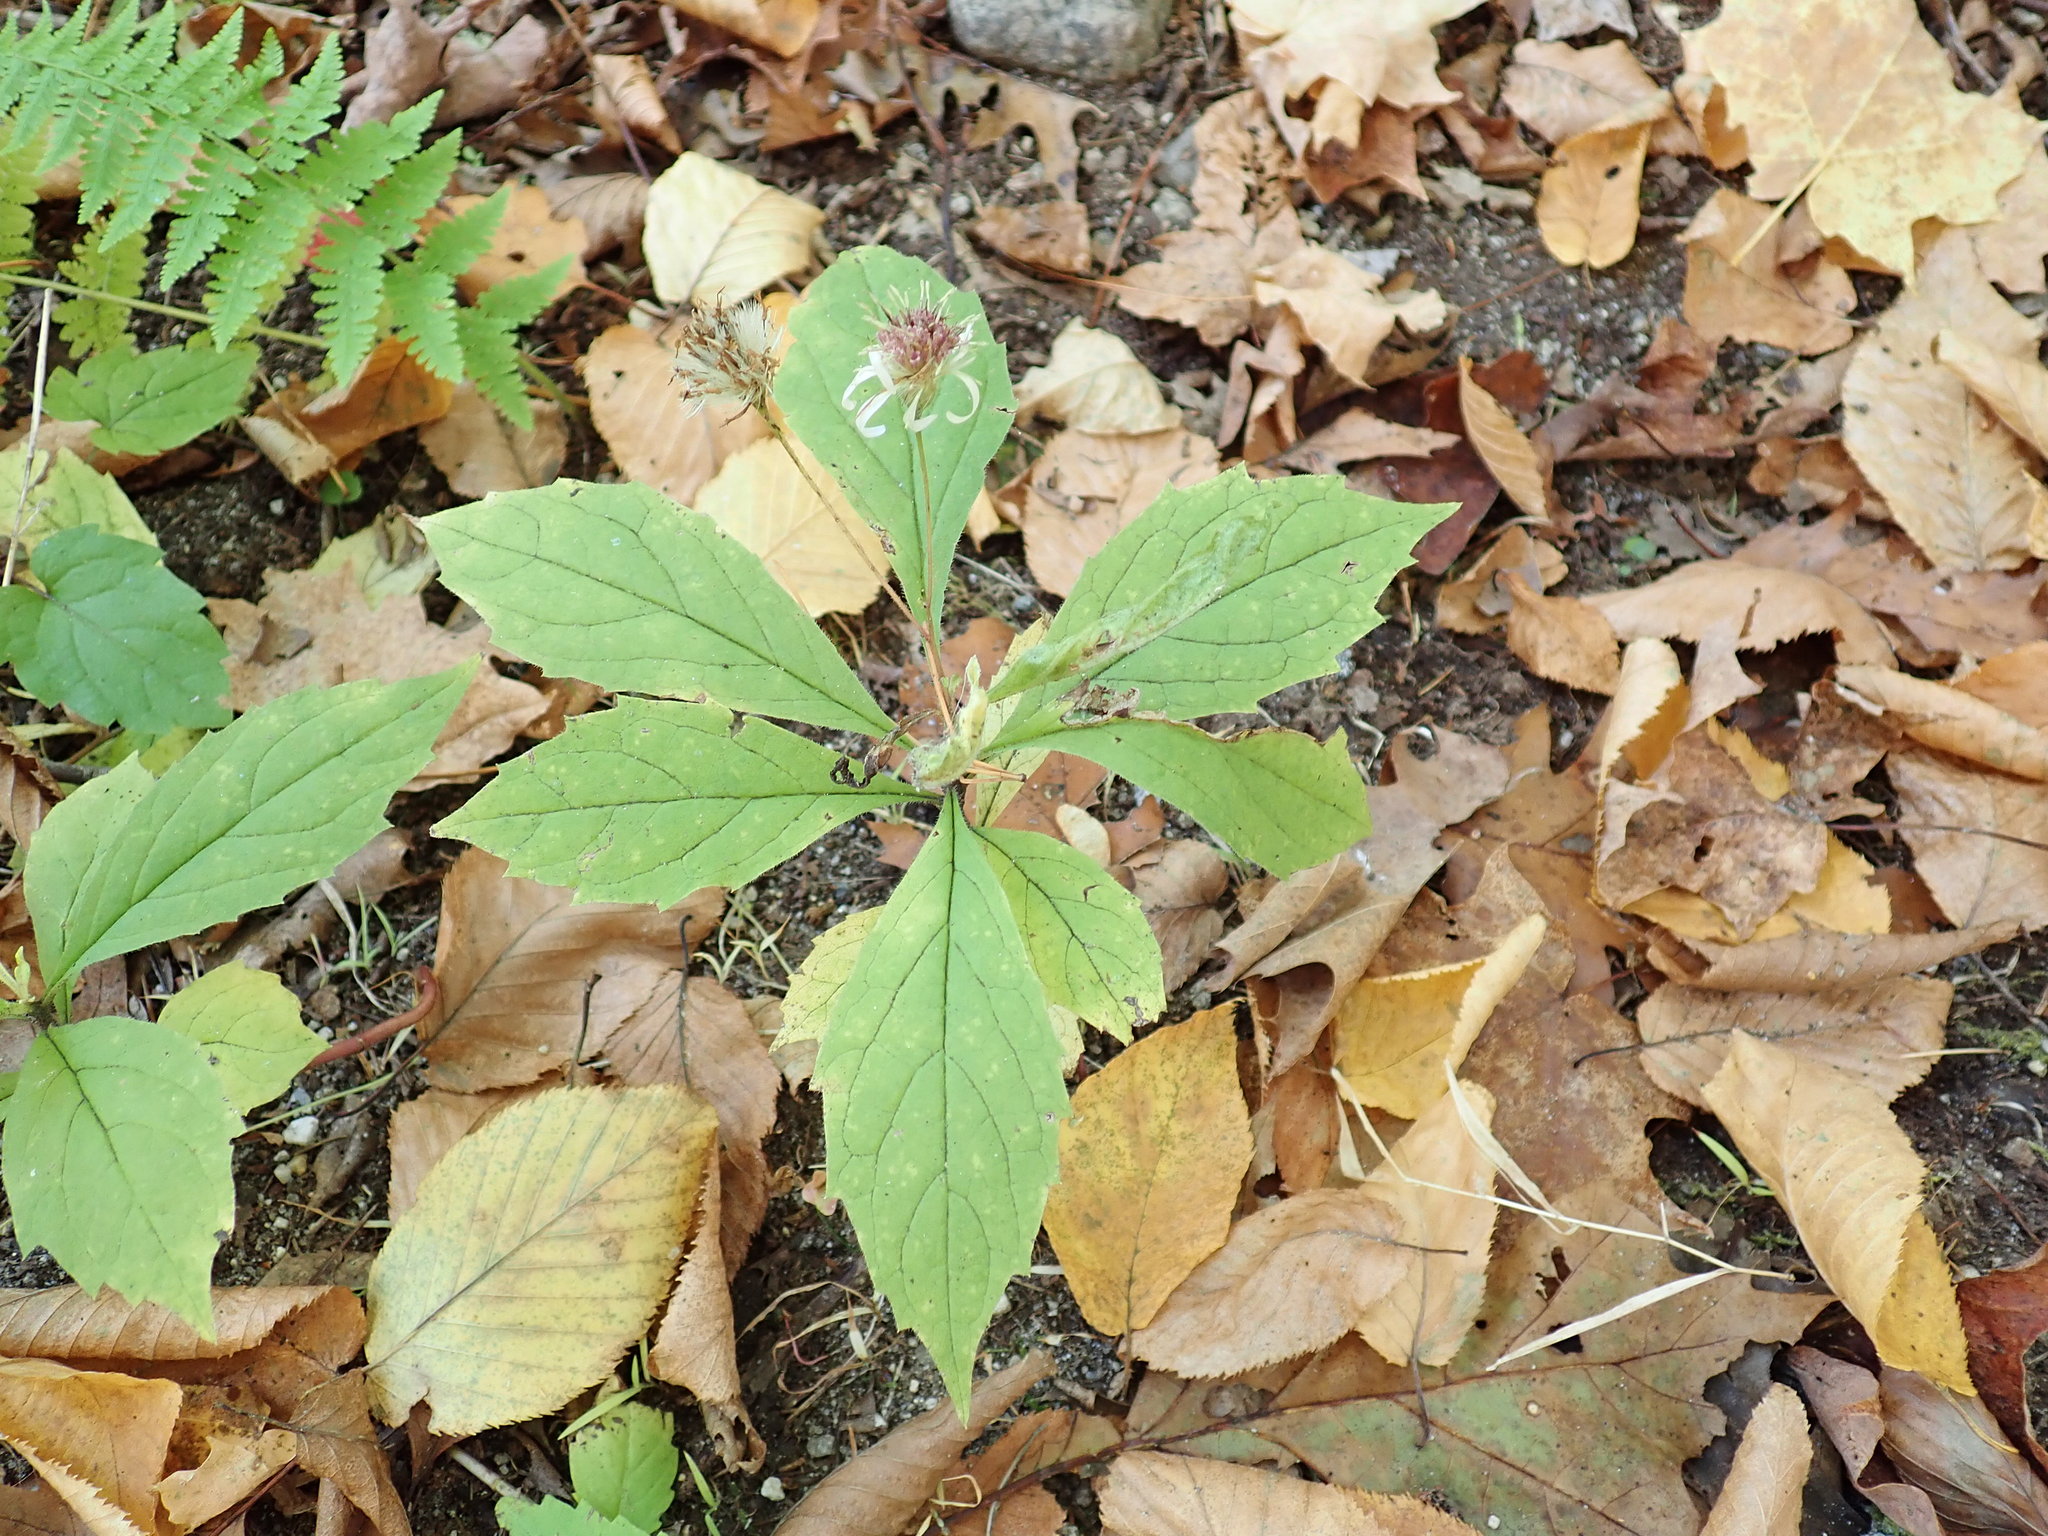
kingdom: Plantae
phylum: Tracheophyta
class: Magnoliopsida
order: Asterales
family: Asteraceae
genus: Oclemena
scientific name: Oclemena acuminata
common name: Mountain aster
